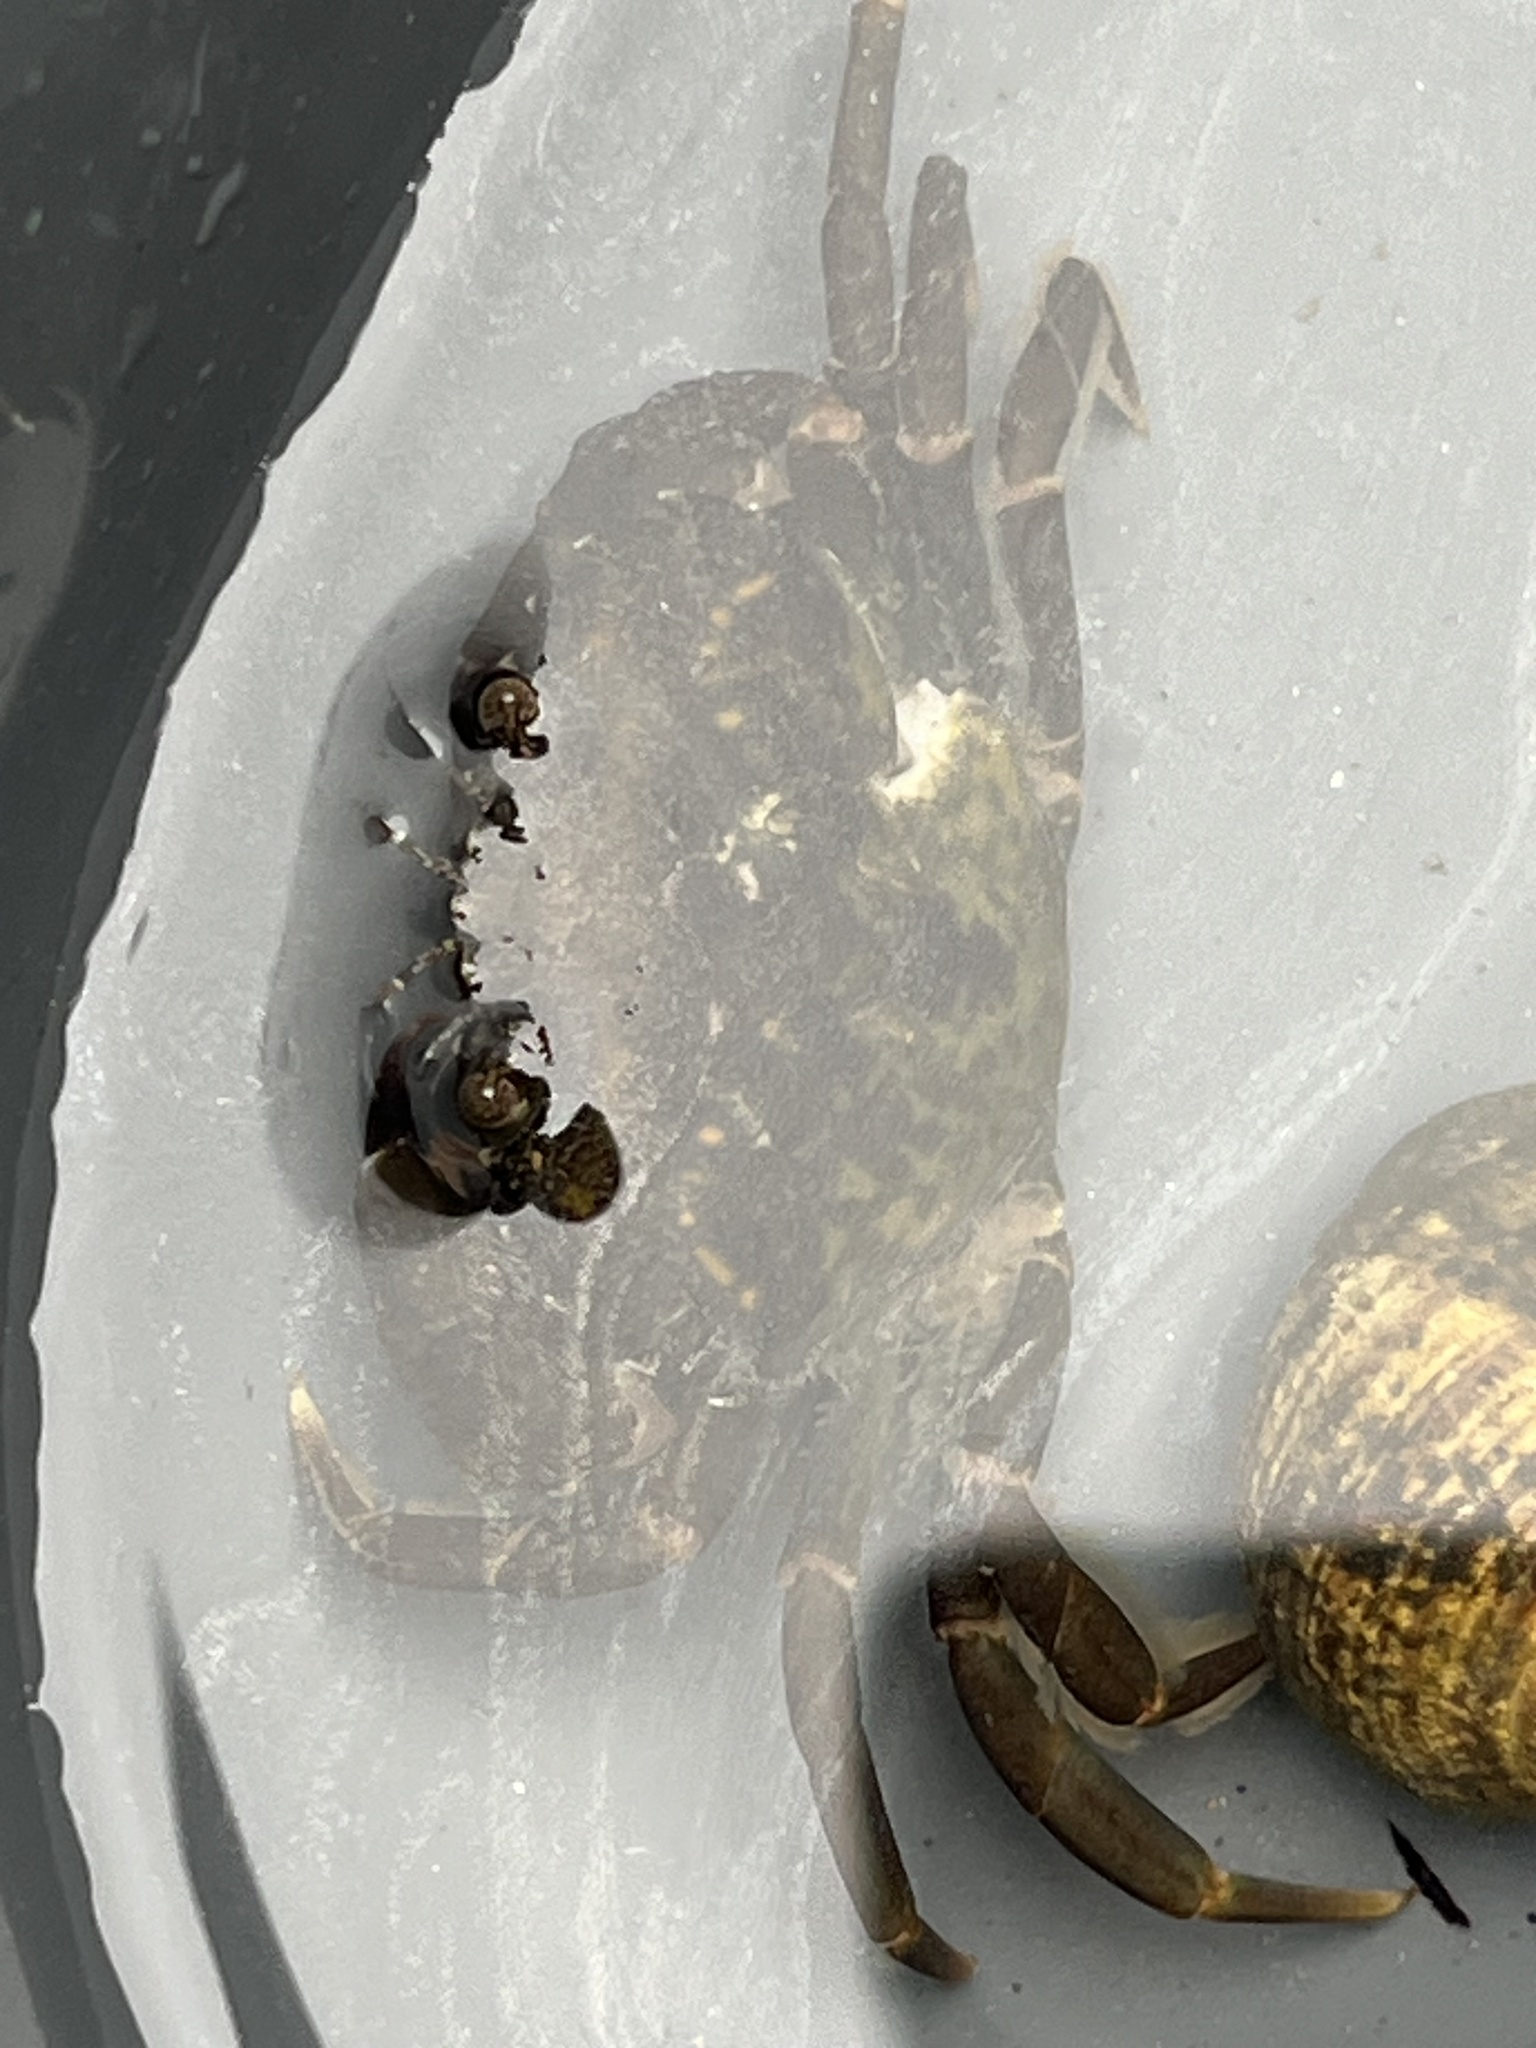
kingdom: Animalia
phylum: Arthropoda
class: Malacostraca
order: Decapoda
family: Carcinidae
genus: Carcinus
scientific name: Carcinus maenas
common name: European green crab
